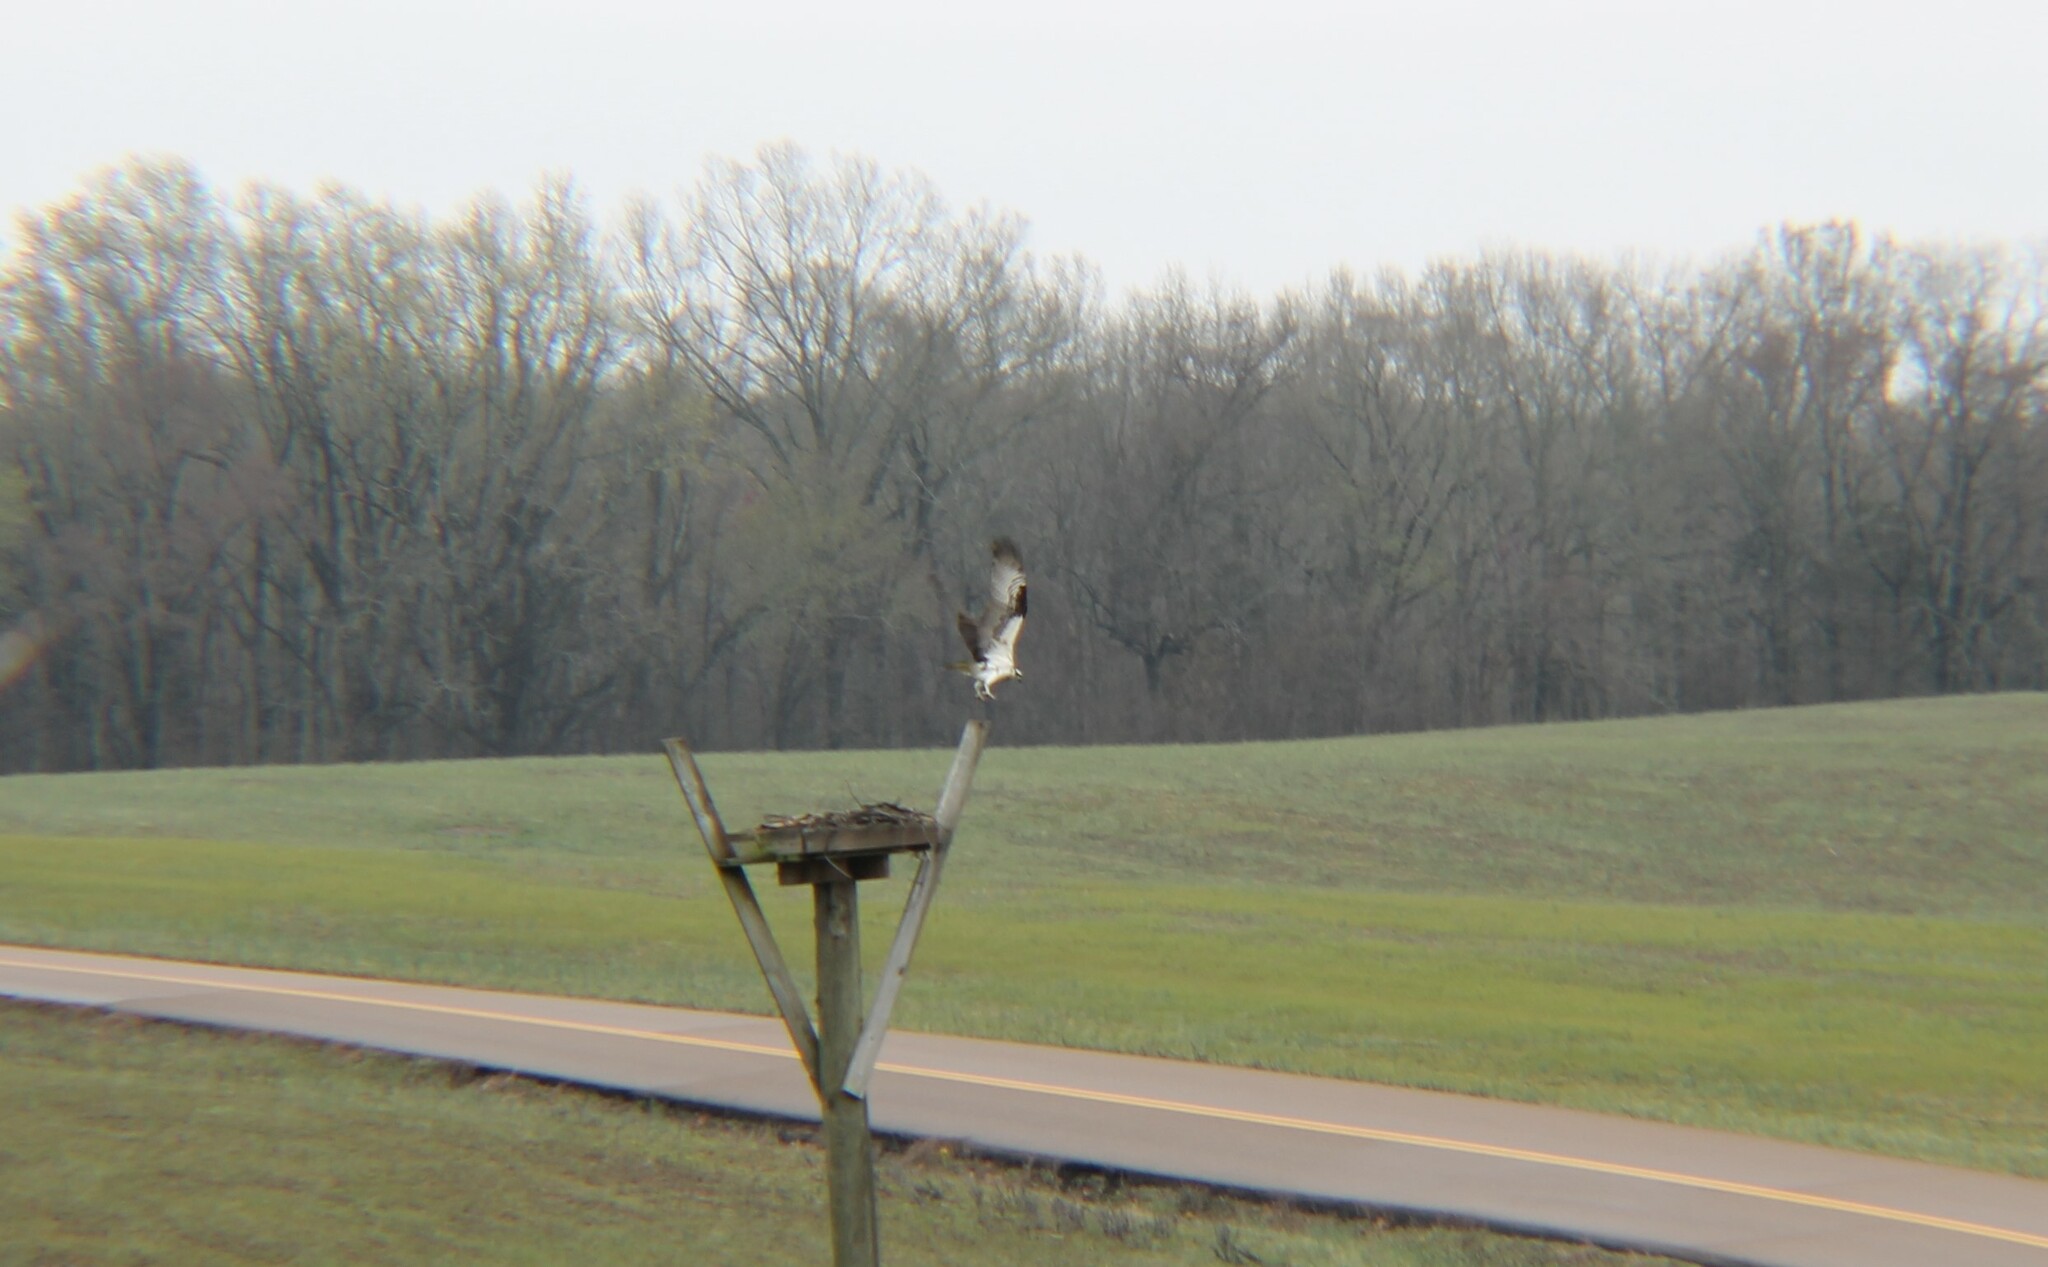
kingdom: Animalia
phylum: Chordata
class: Aves
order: Accipitriformes
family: Pandionidae
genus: Pandion
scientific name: Pandion haliaetus
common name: Osprey
